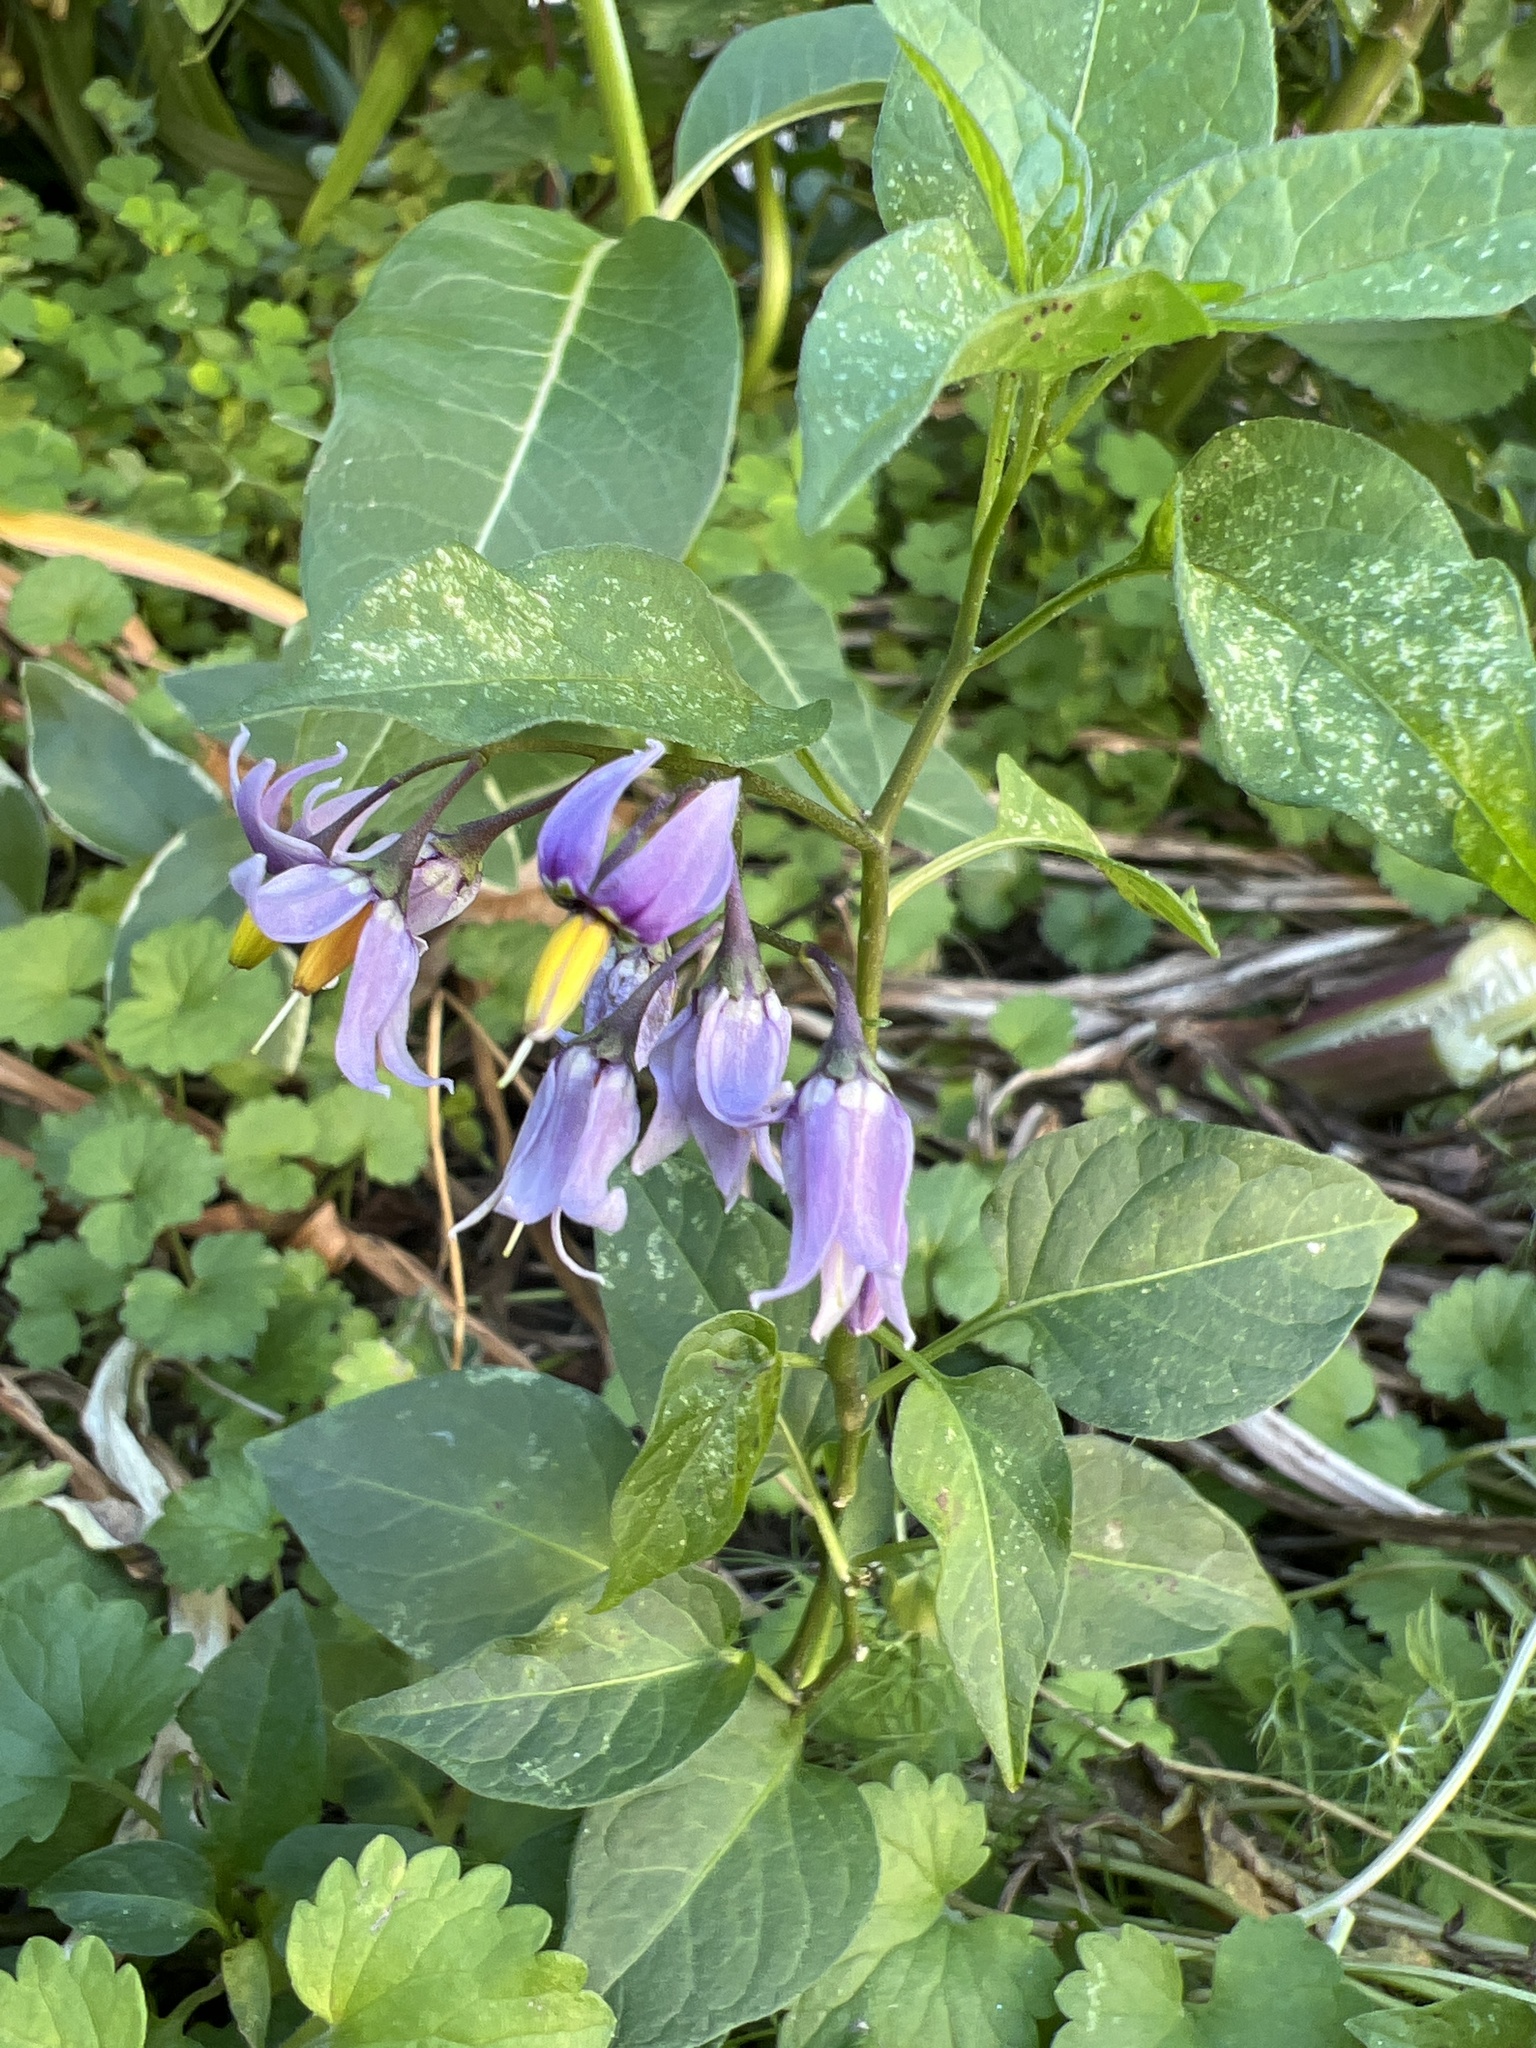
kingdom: Plantae
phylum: Tracheophyta
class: Magnoliopsida
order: Solanales
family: Solanaceae
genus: Solanum
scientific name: Solanum dulcamara
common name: Climbing nightshade
